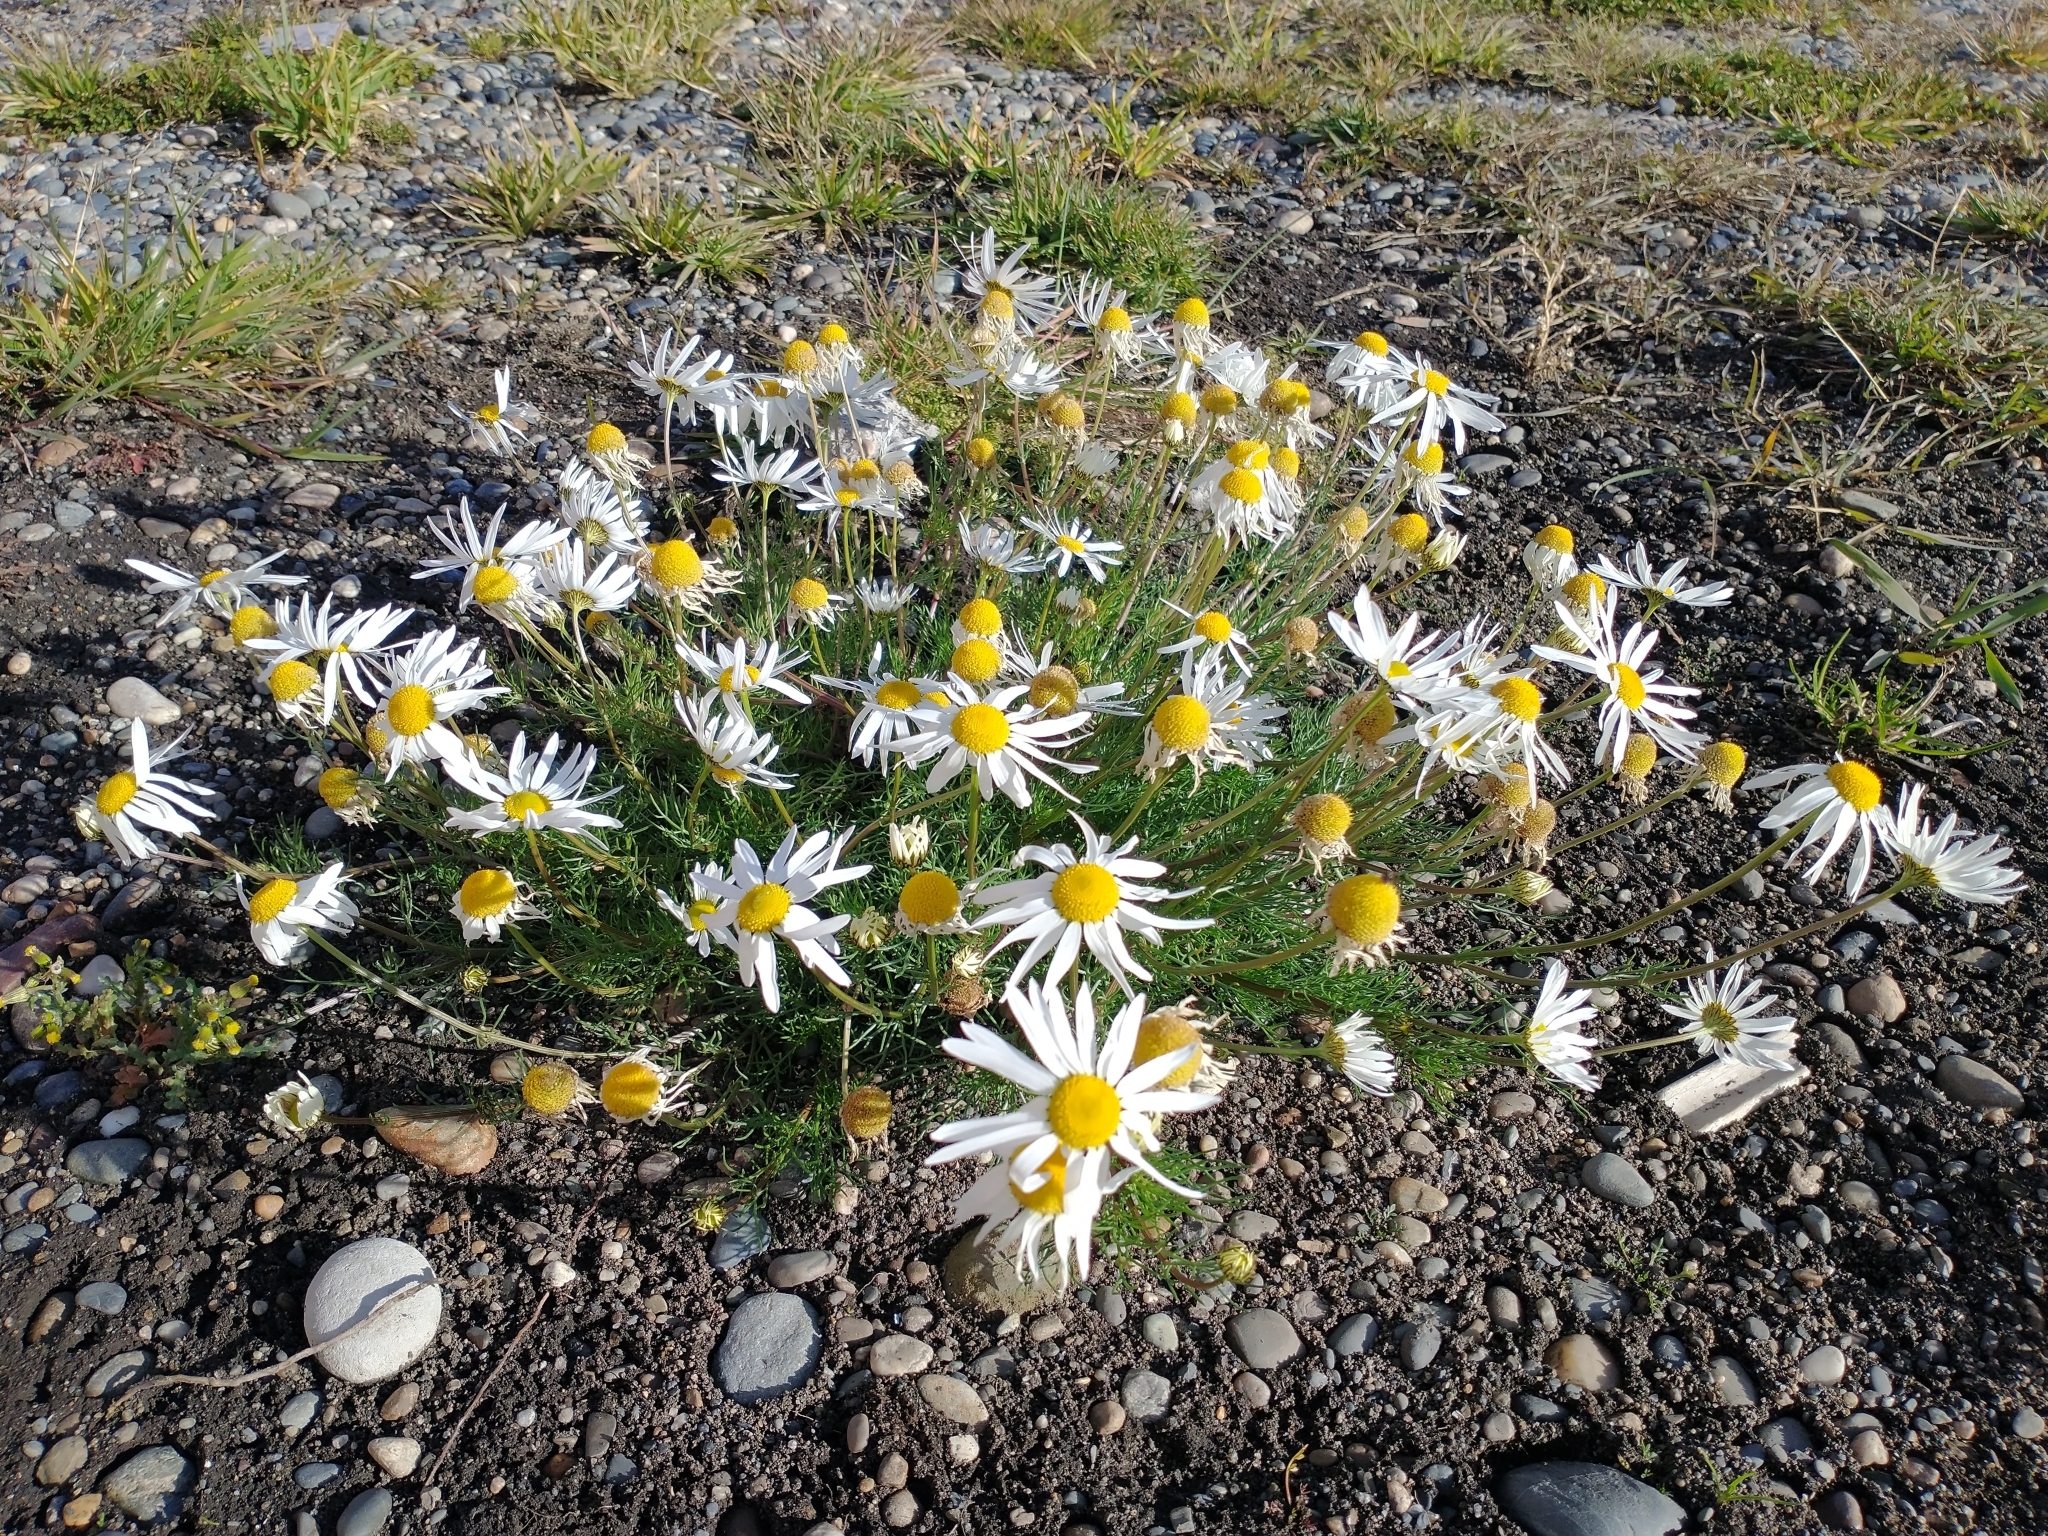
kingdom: Plantae
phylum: Tracheophyta
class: Magnoliopsida
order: Asterales
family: Asteraceae
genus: Tripleurospermum
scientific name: Tripleurospermum inodorum
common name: Scentless mayweed
